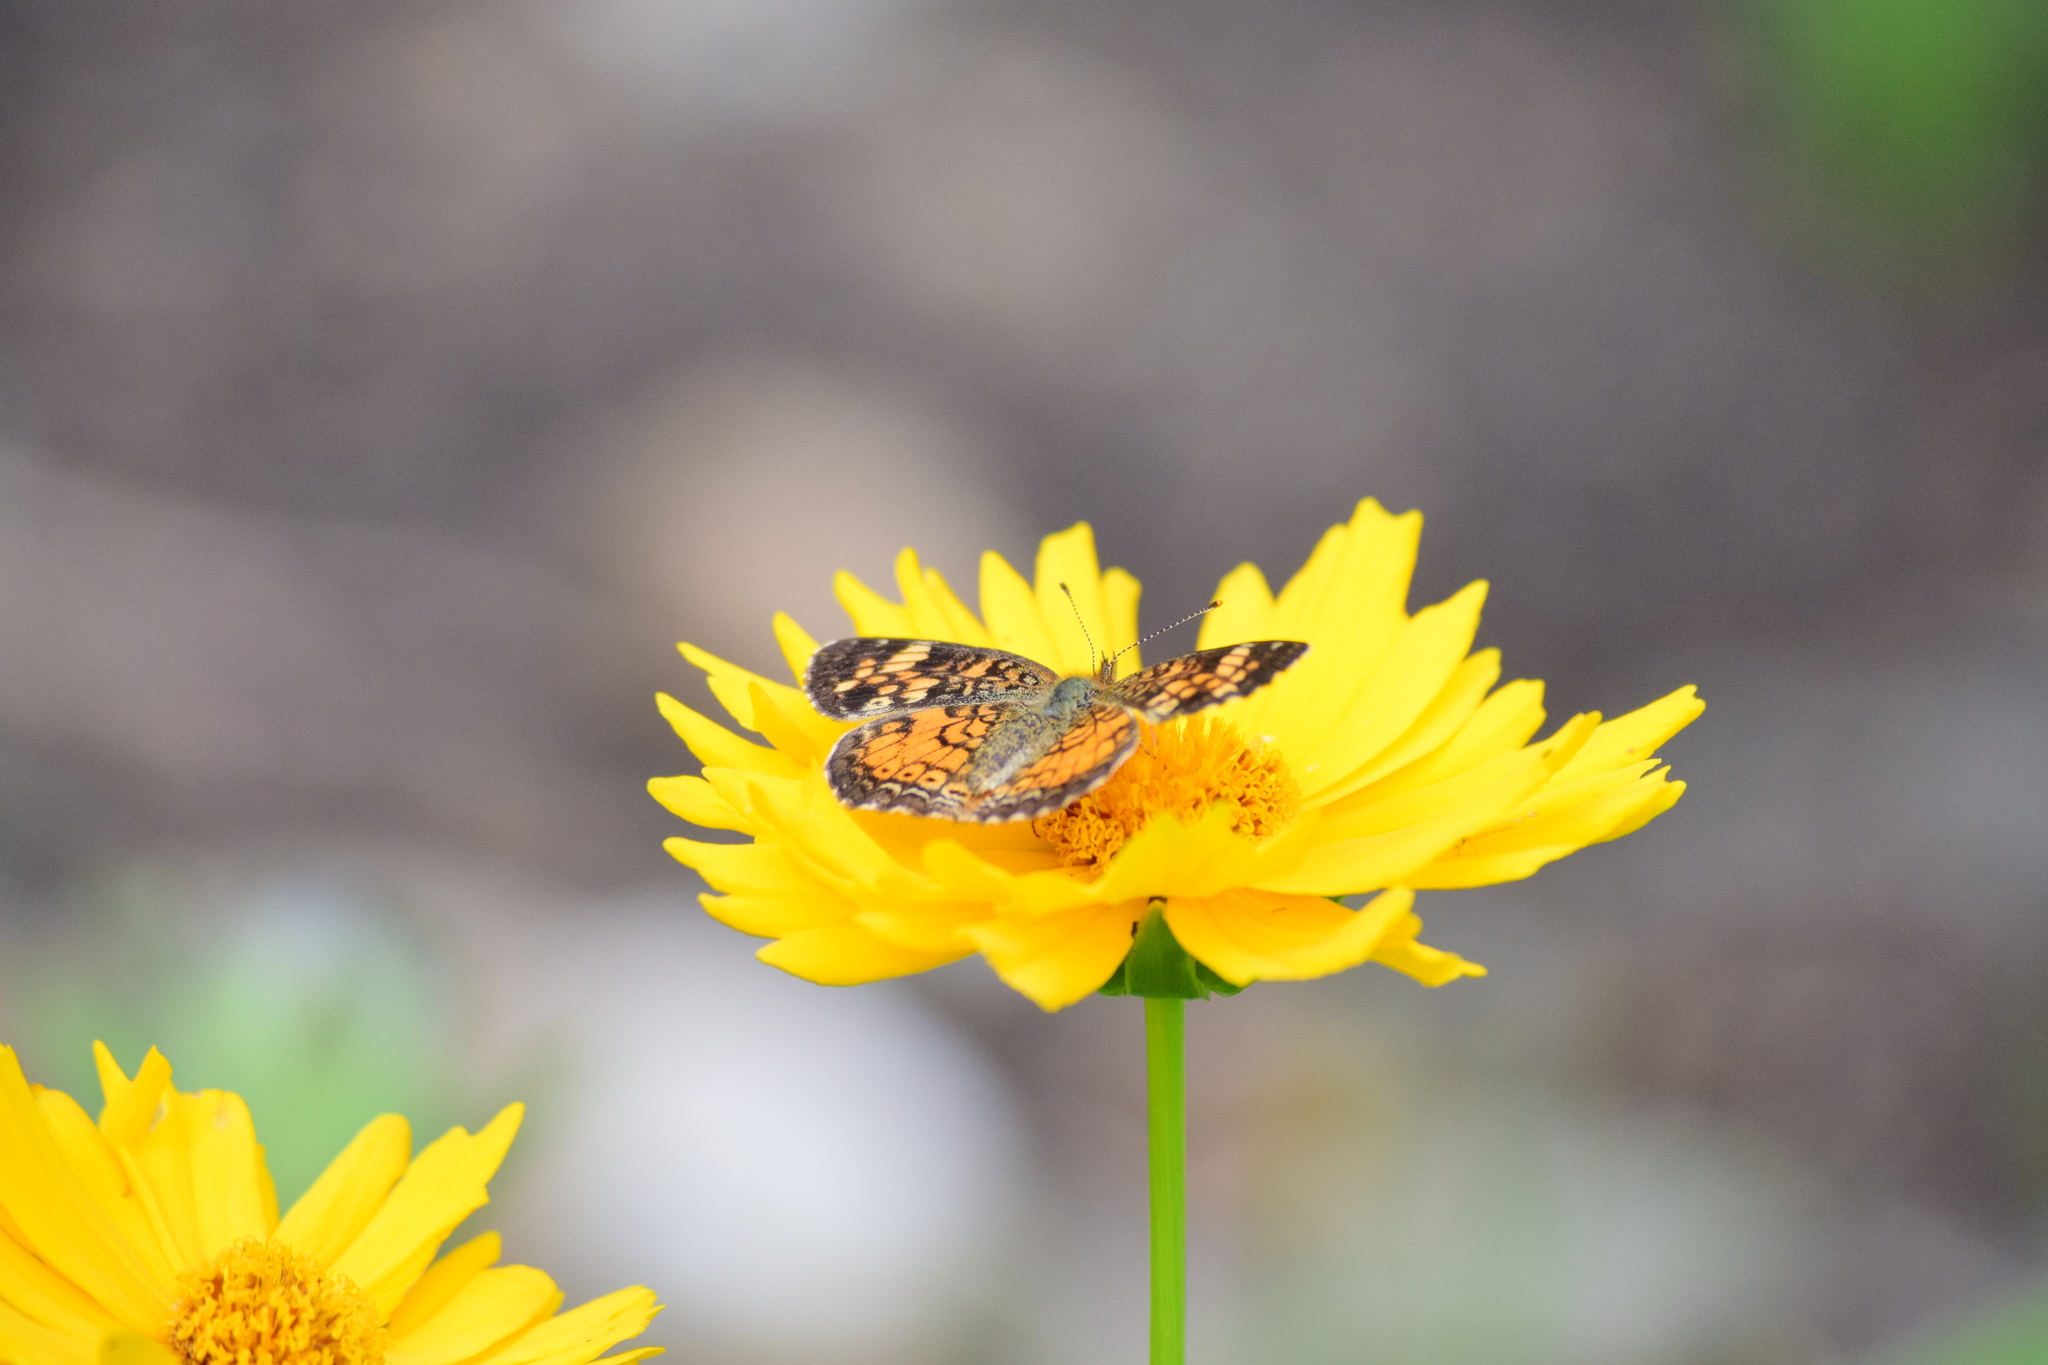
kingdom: Animalia
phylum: Arthropoda
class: Insecta
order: Lepidoptera
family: Nymphalidae
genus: Phyciodes
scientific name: Phyciodes tharos
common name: Pearl crescent
